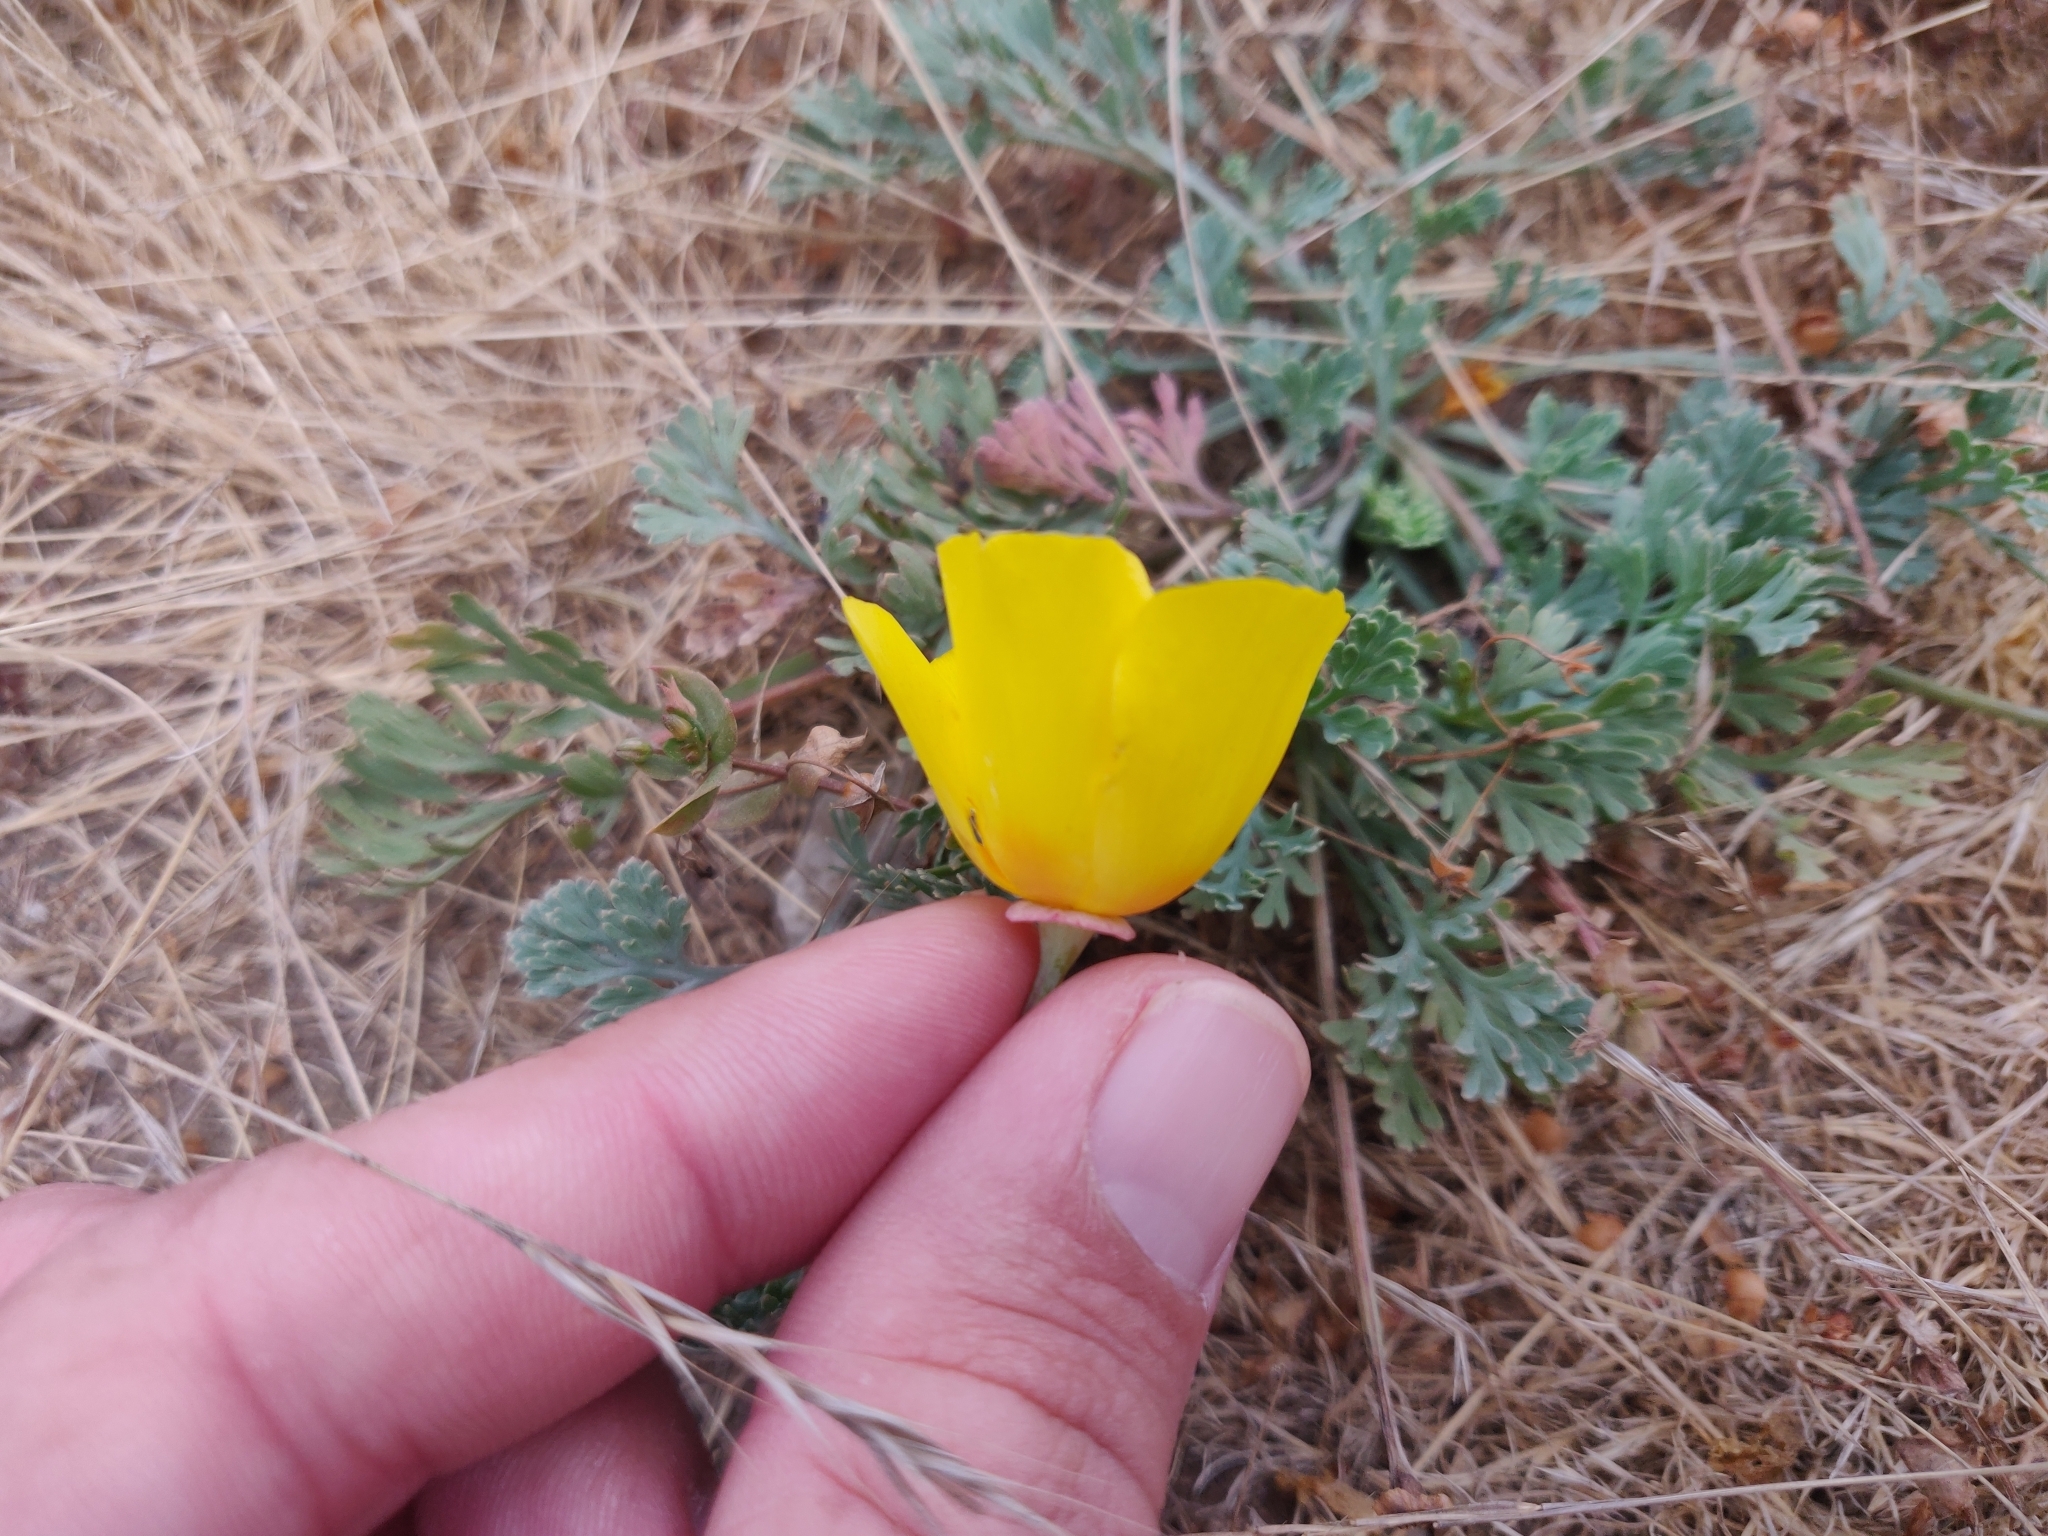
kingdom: Plantae
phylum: Tracheophyta
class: Magnoliopsida
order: Ranunculales
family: Papaveraceae
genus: Eschscholzia
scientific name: Eschscholzia californica
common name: California poppy
